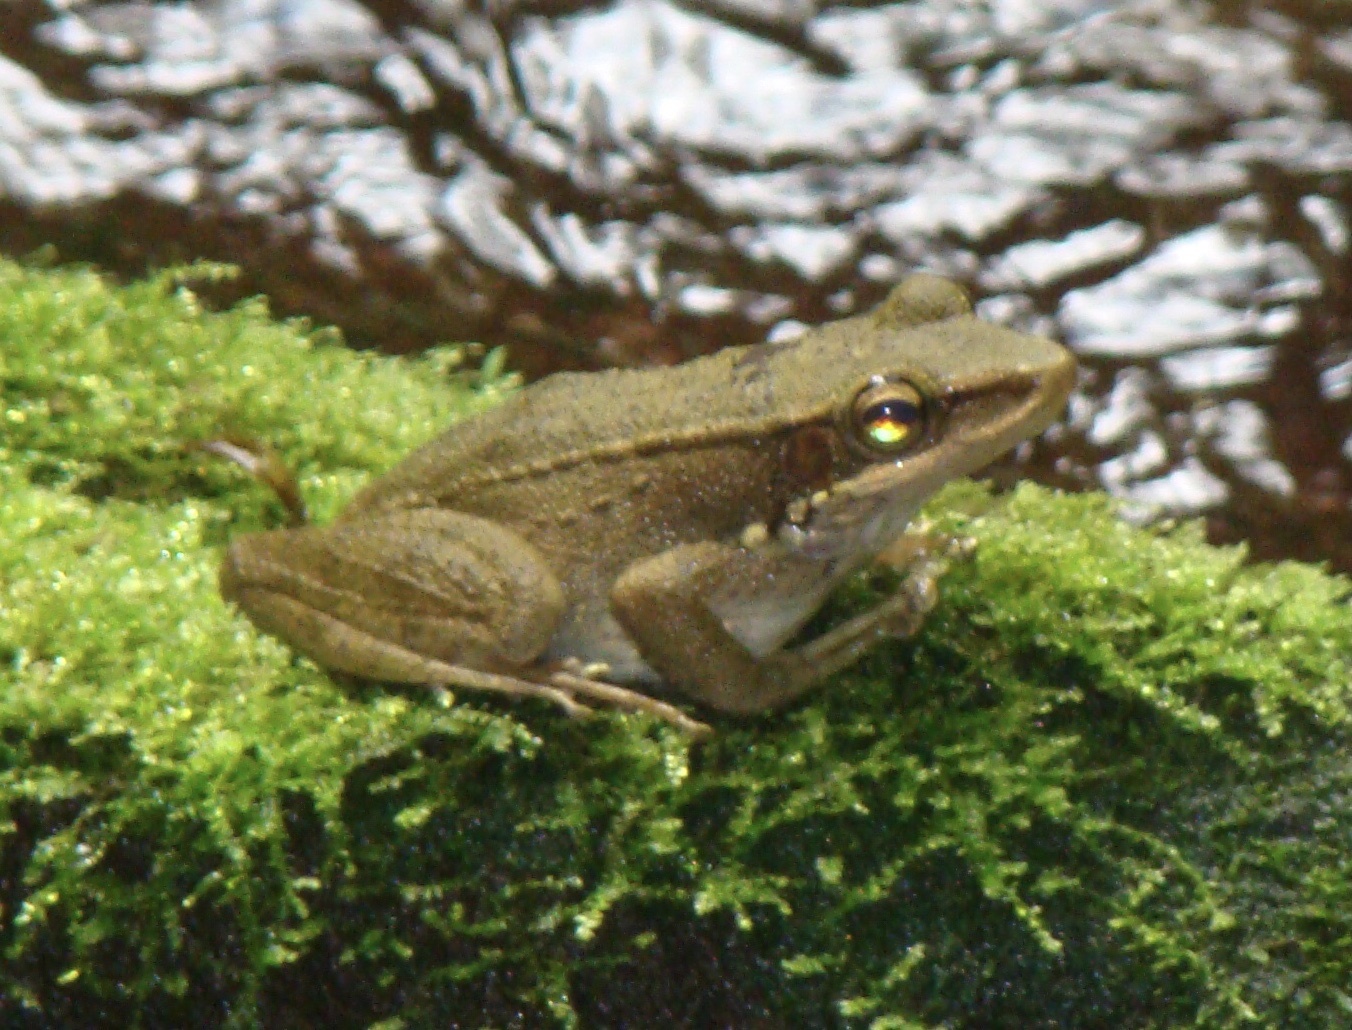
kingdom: Animalia
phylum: Chordata
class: Amphibia
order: Anura
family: Ranidae
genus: Chalcorana
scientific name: Chalcorana chalconota
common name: Schlegel's frog
